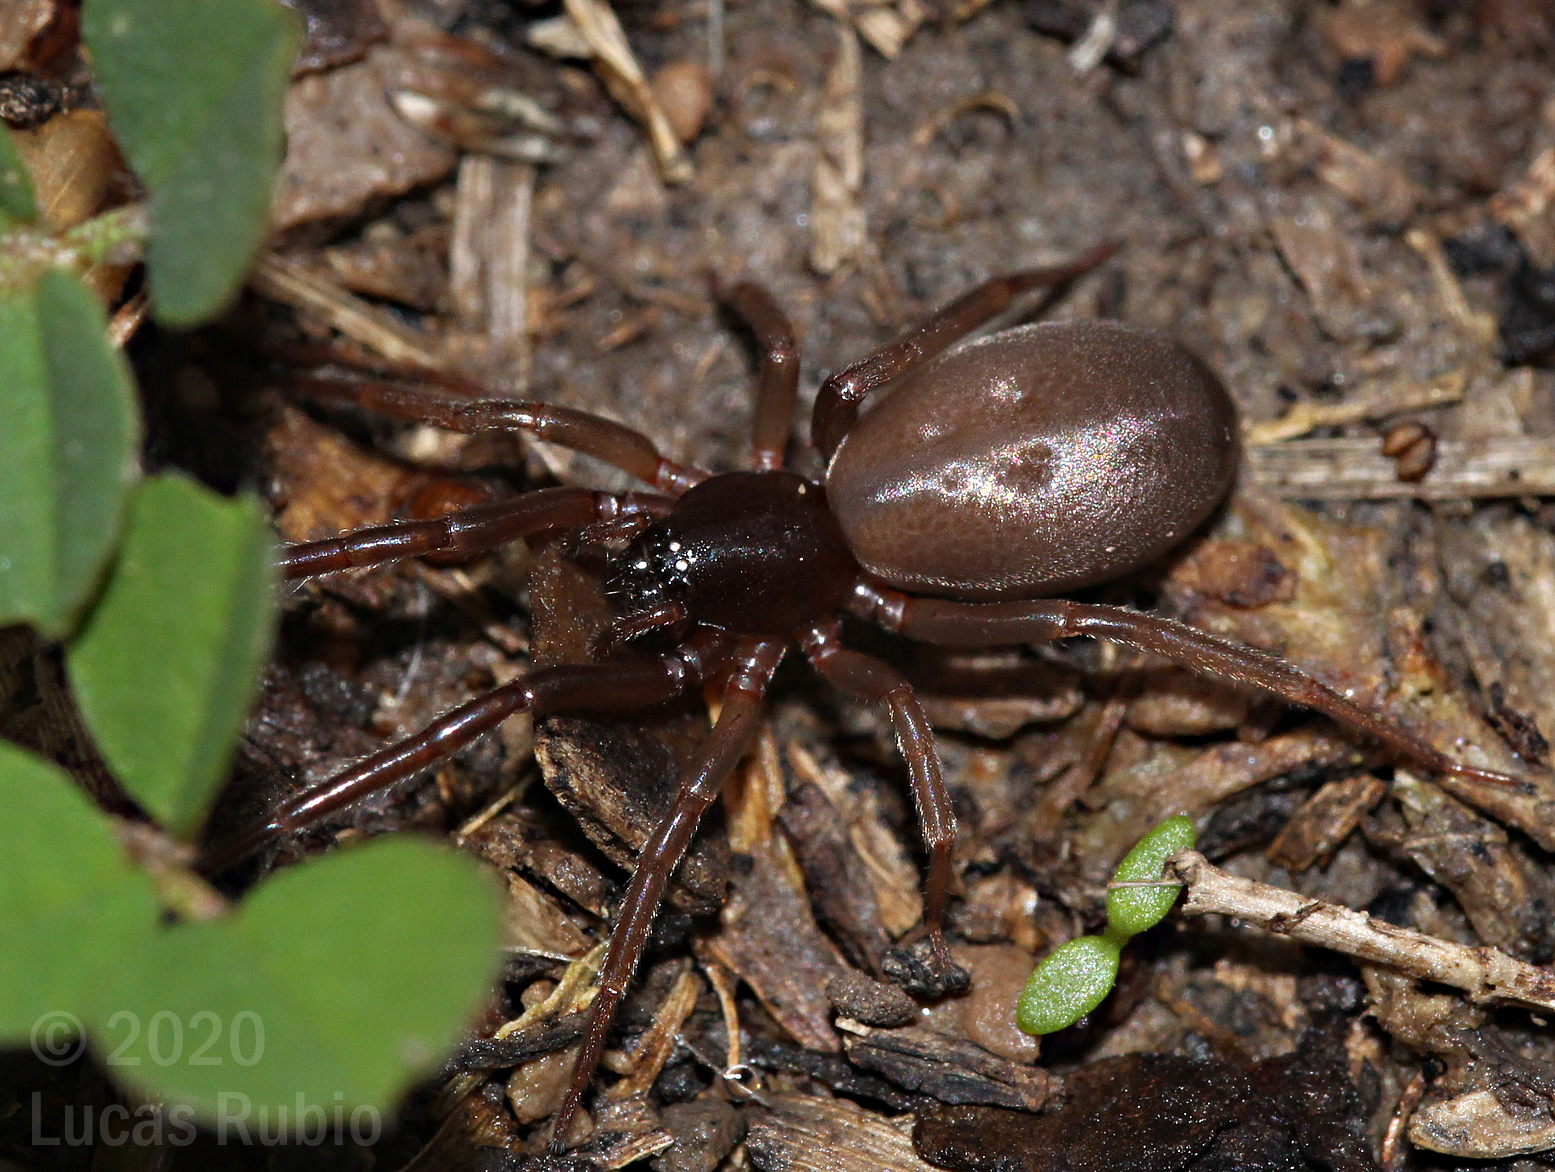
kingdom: Animalia
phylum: Arthropoda
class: Arachnida
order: Araneae
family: Trachelidae
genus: Meriola
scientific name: Meriola
